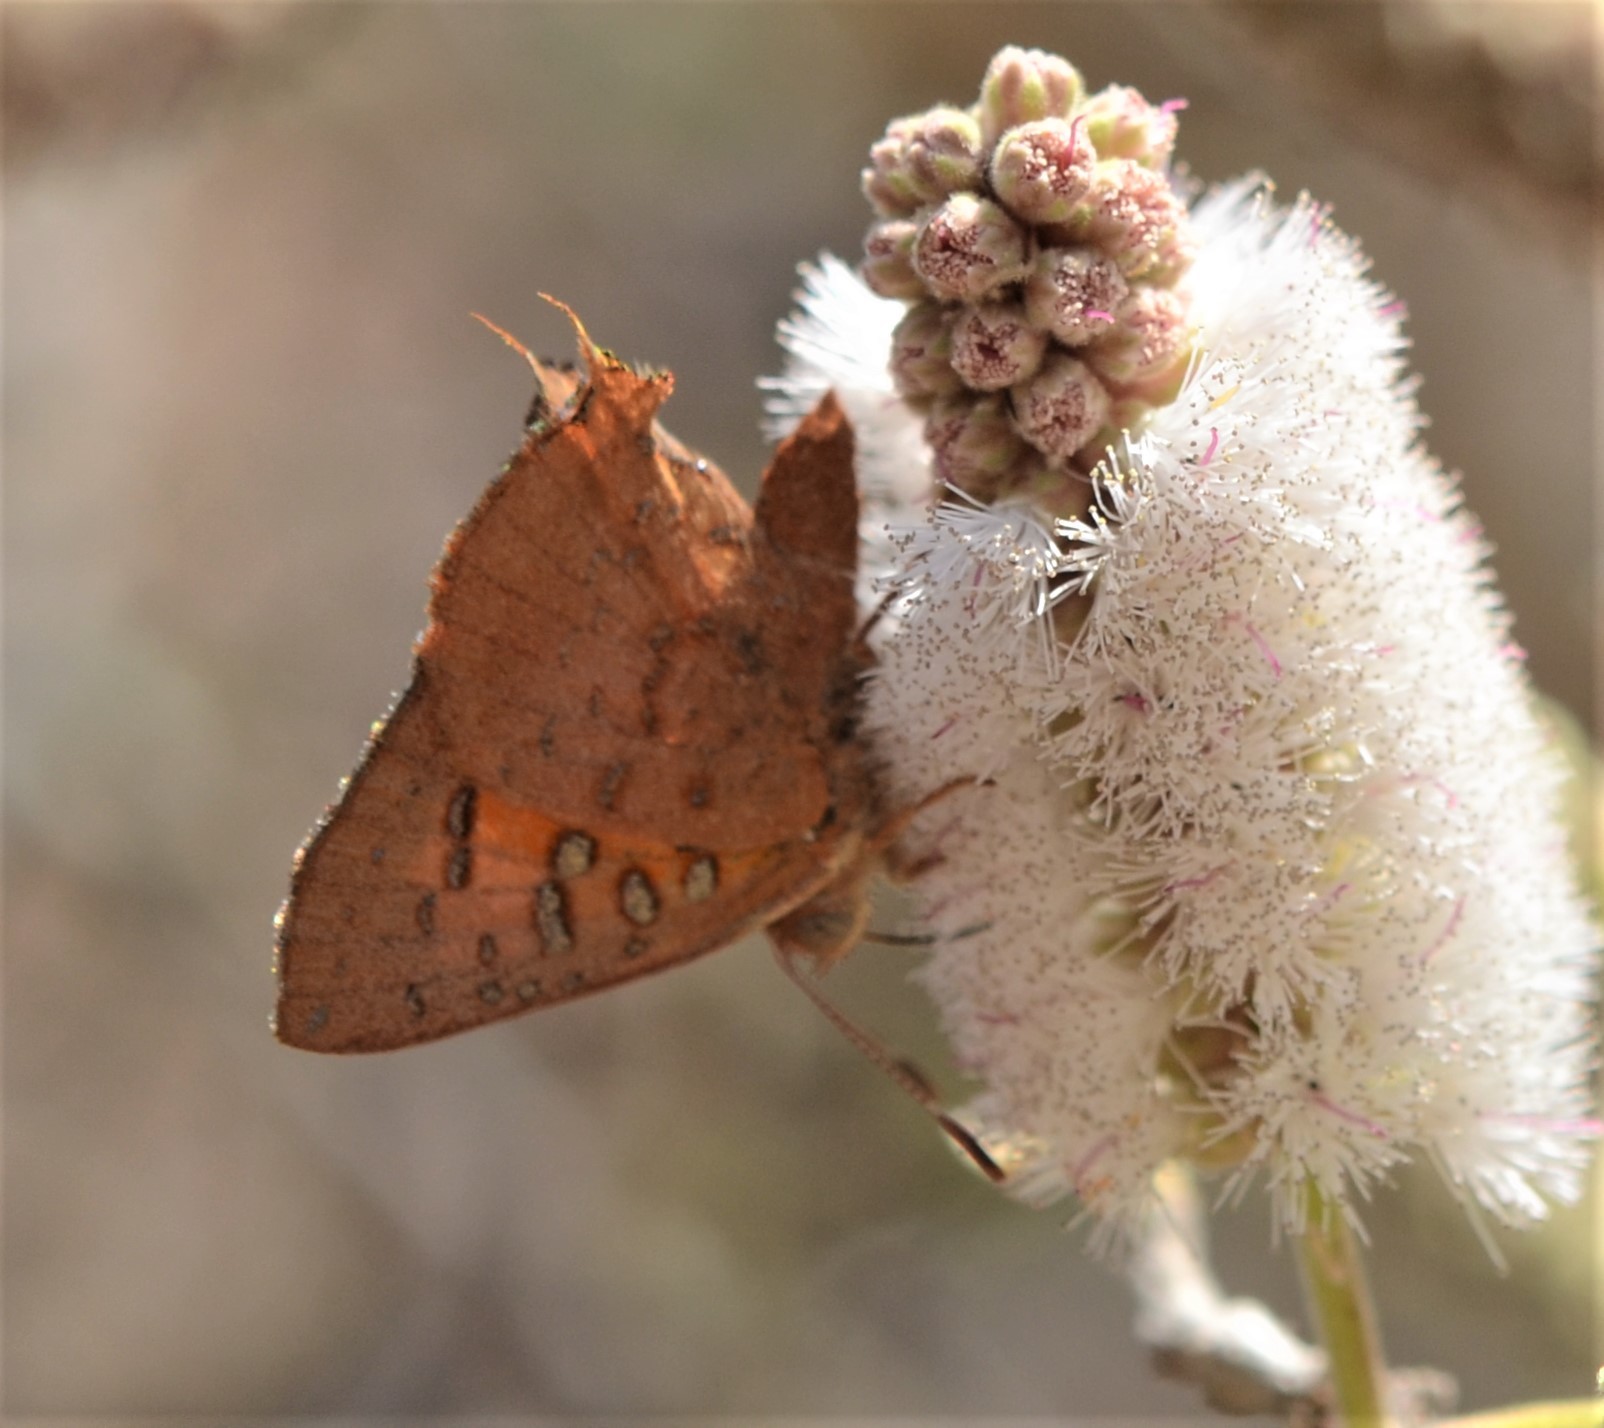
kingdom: Animalia
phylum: Arthropoda
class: Insecta
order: Lepidoptera
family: Lycaenidae
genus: Axiocerses
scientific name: Axiocerses perion
